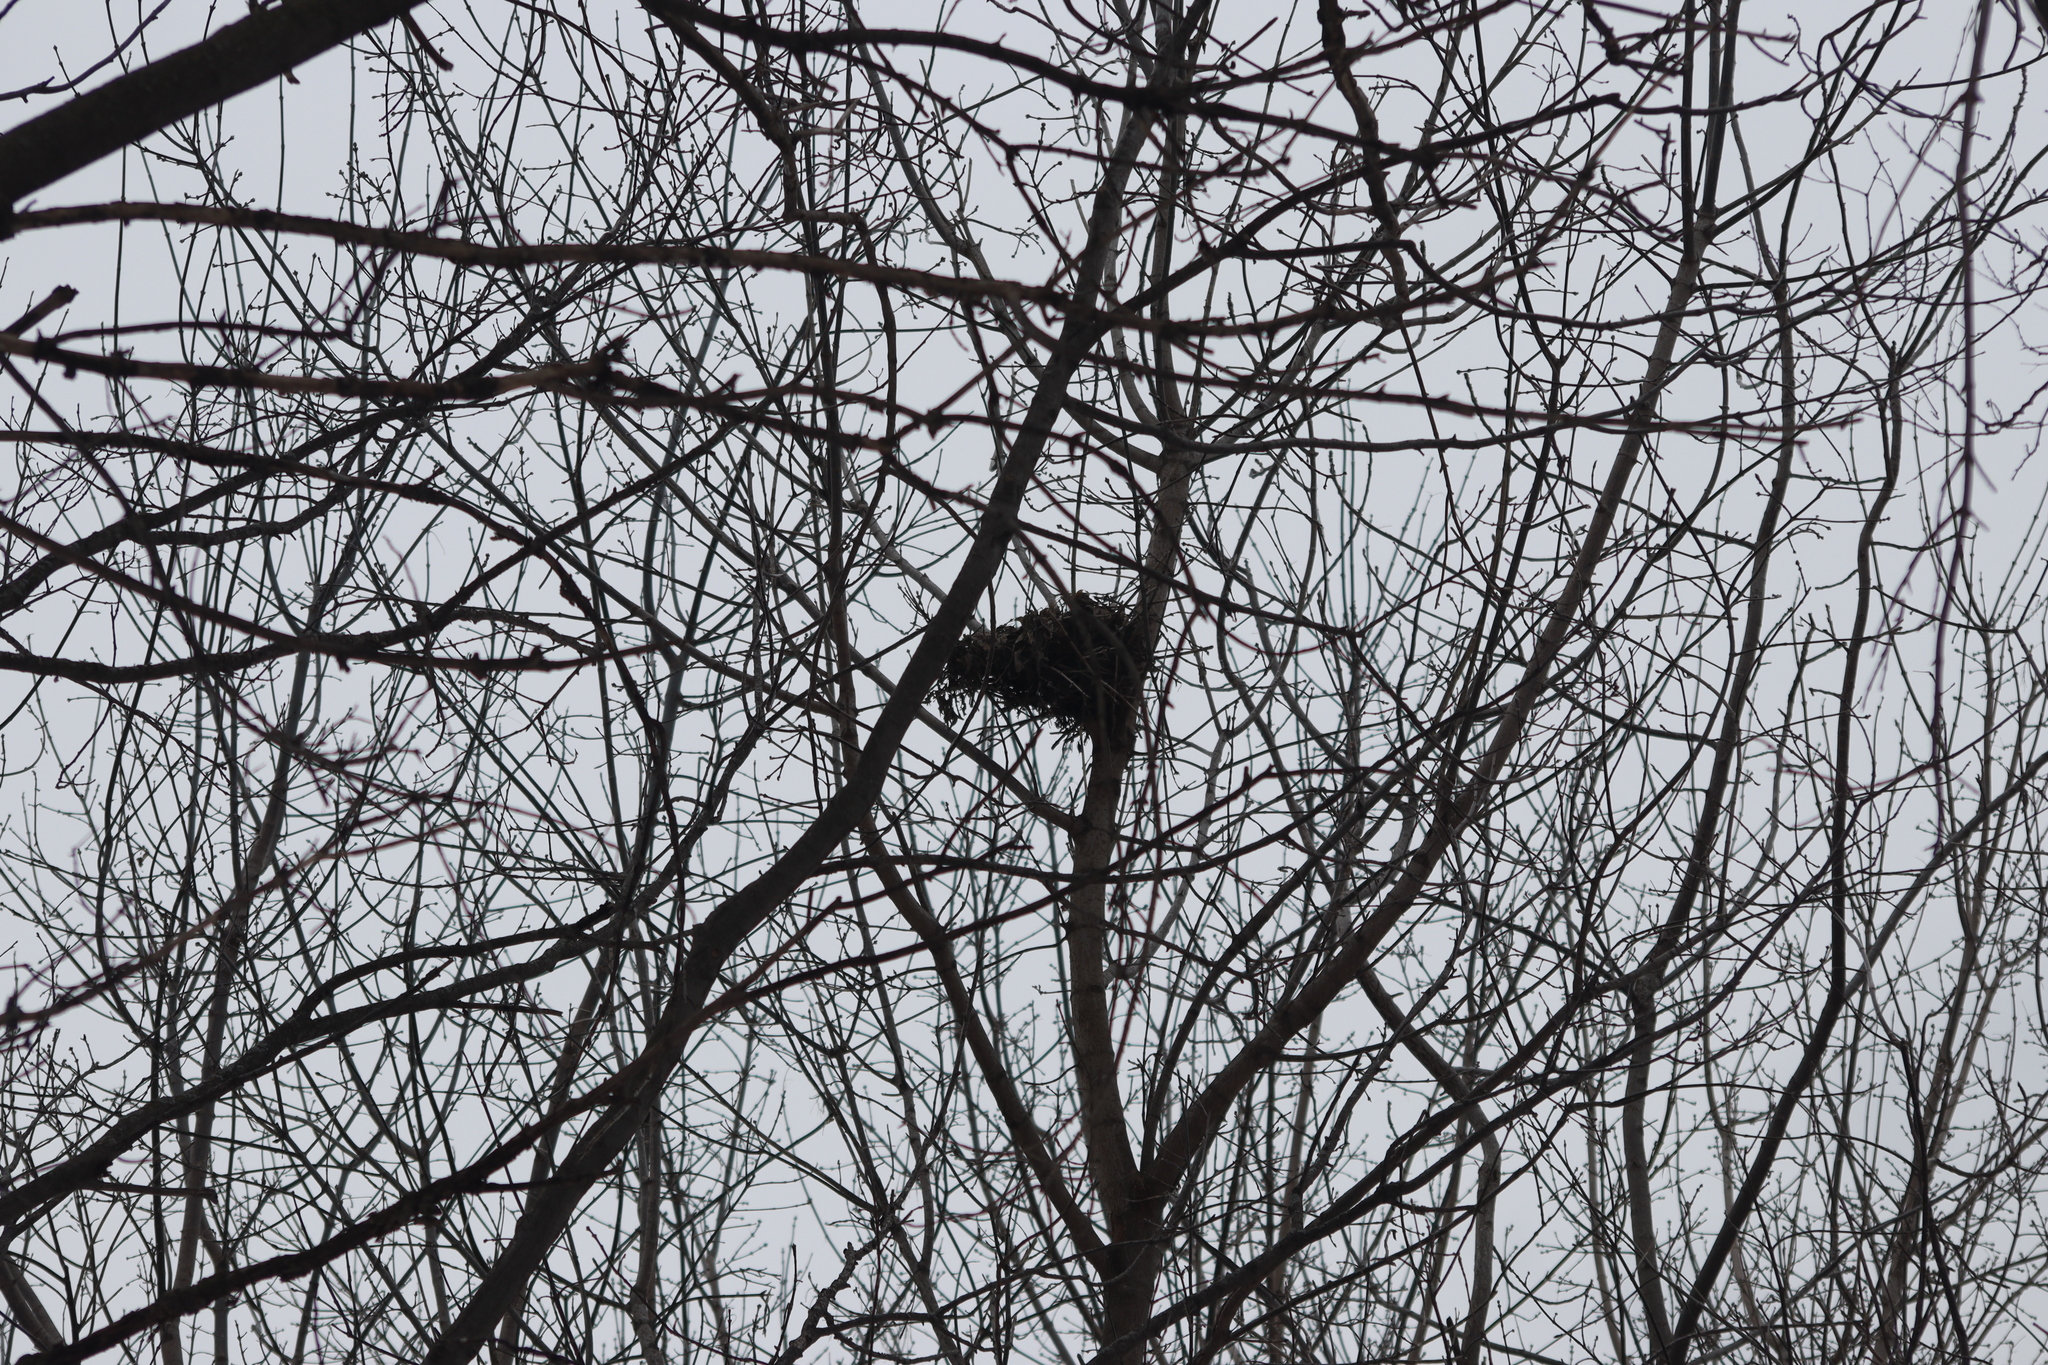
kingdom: Animalia
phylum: Chordata
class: Mammalia
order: Rodentia
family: Sciuridae
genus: Sciurus
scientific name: Sciurus carolinensis
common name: Eastern gray squirrel
